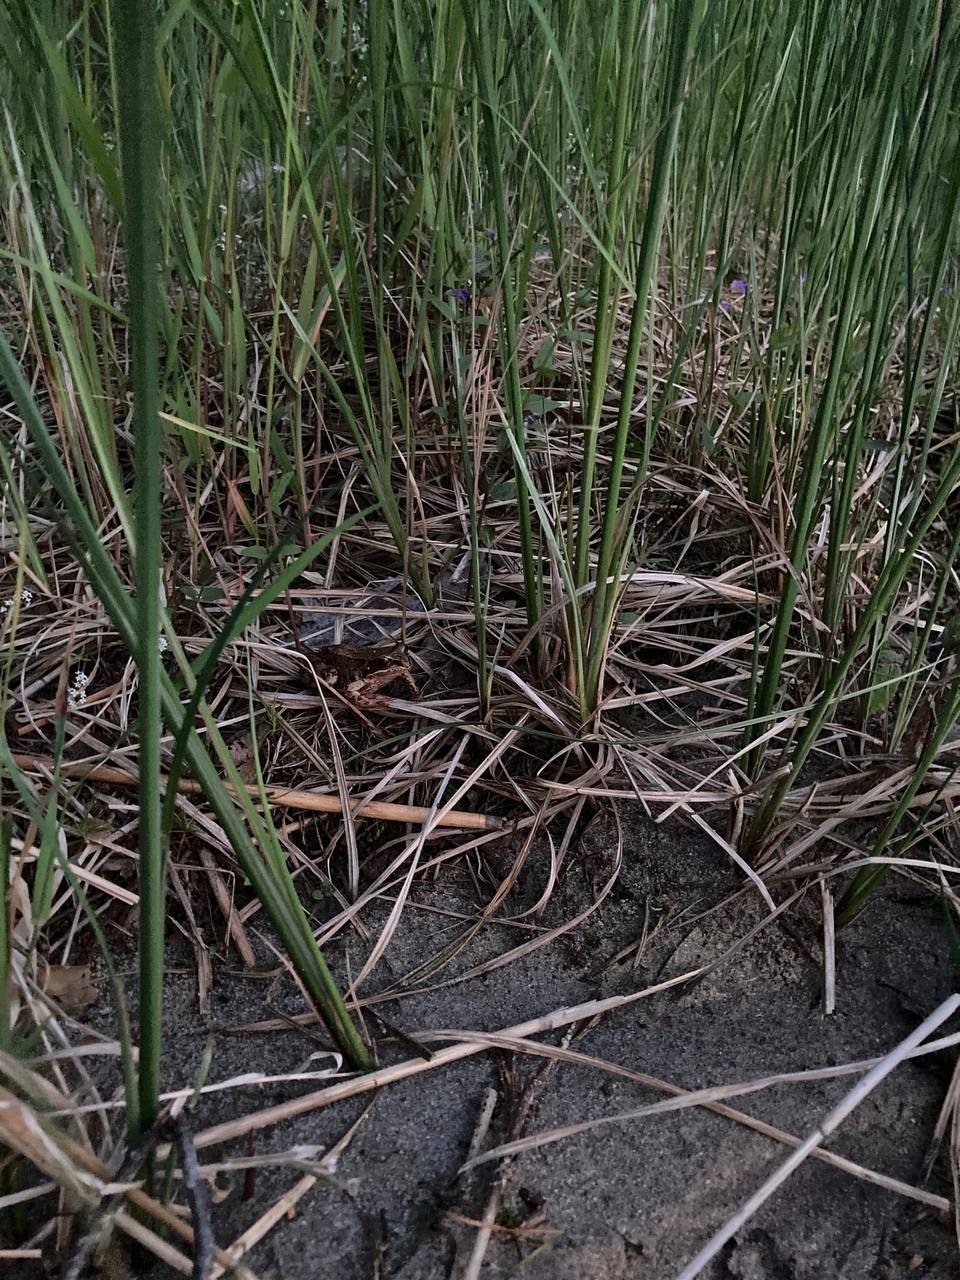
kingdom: Animalia
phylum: Chordata
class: Amphibia
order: Anura
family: Ranidae
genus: Rana
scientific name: Rana temporaria
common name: Common frog
